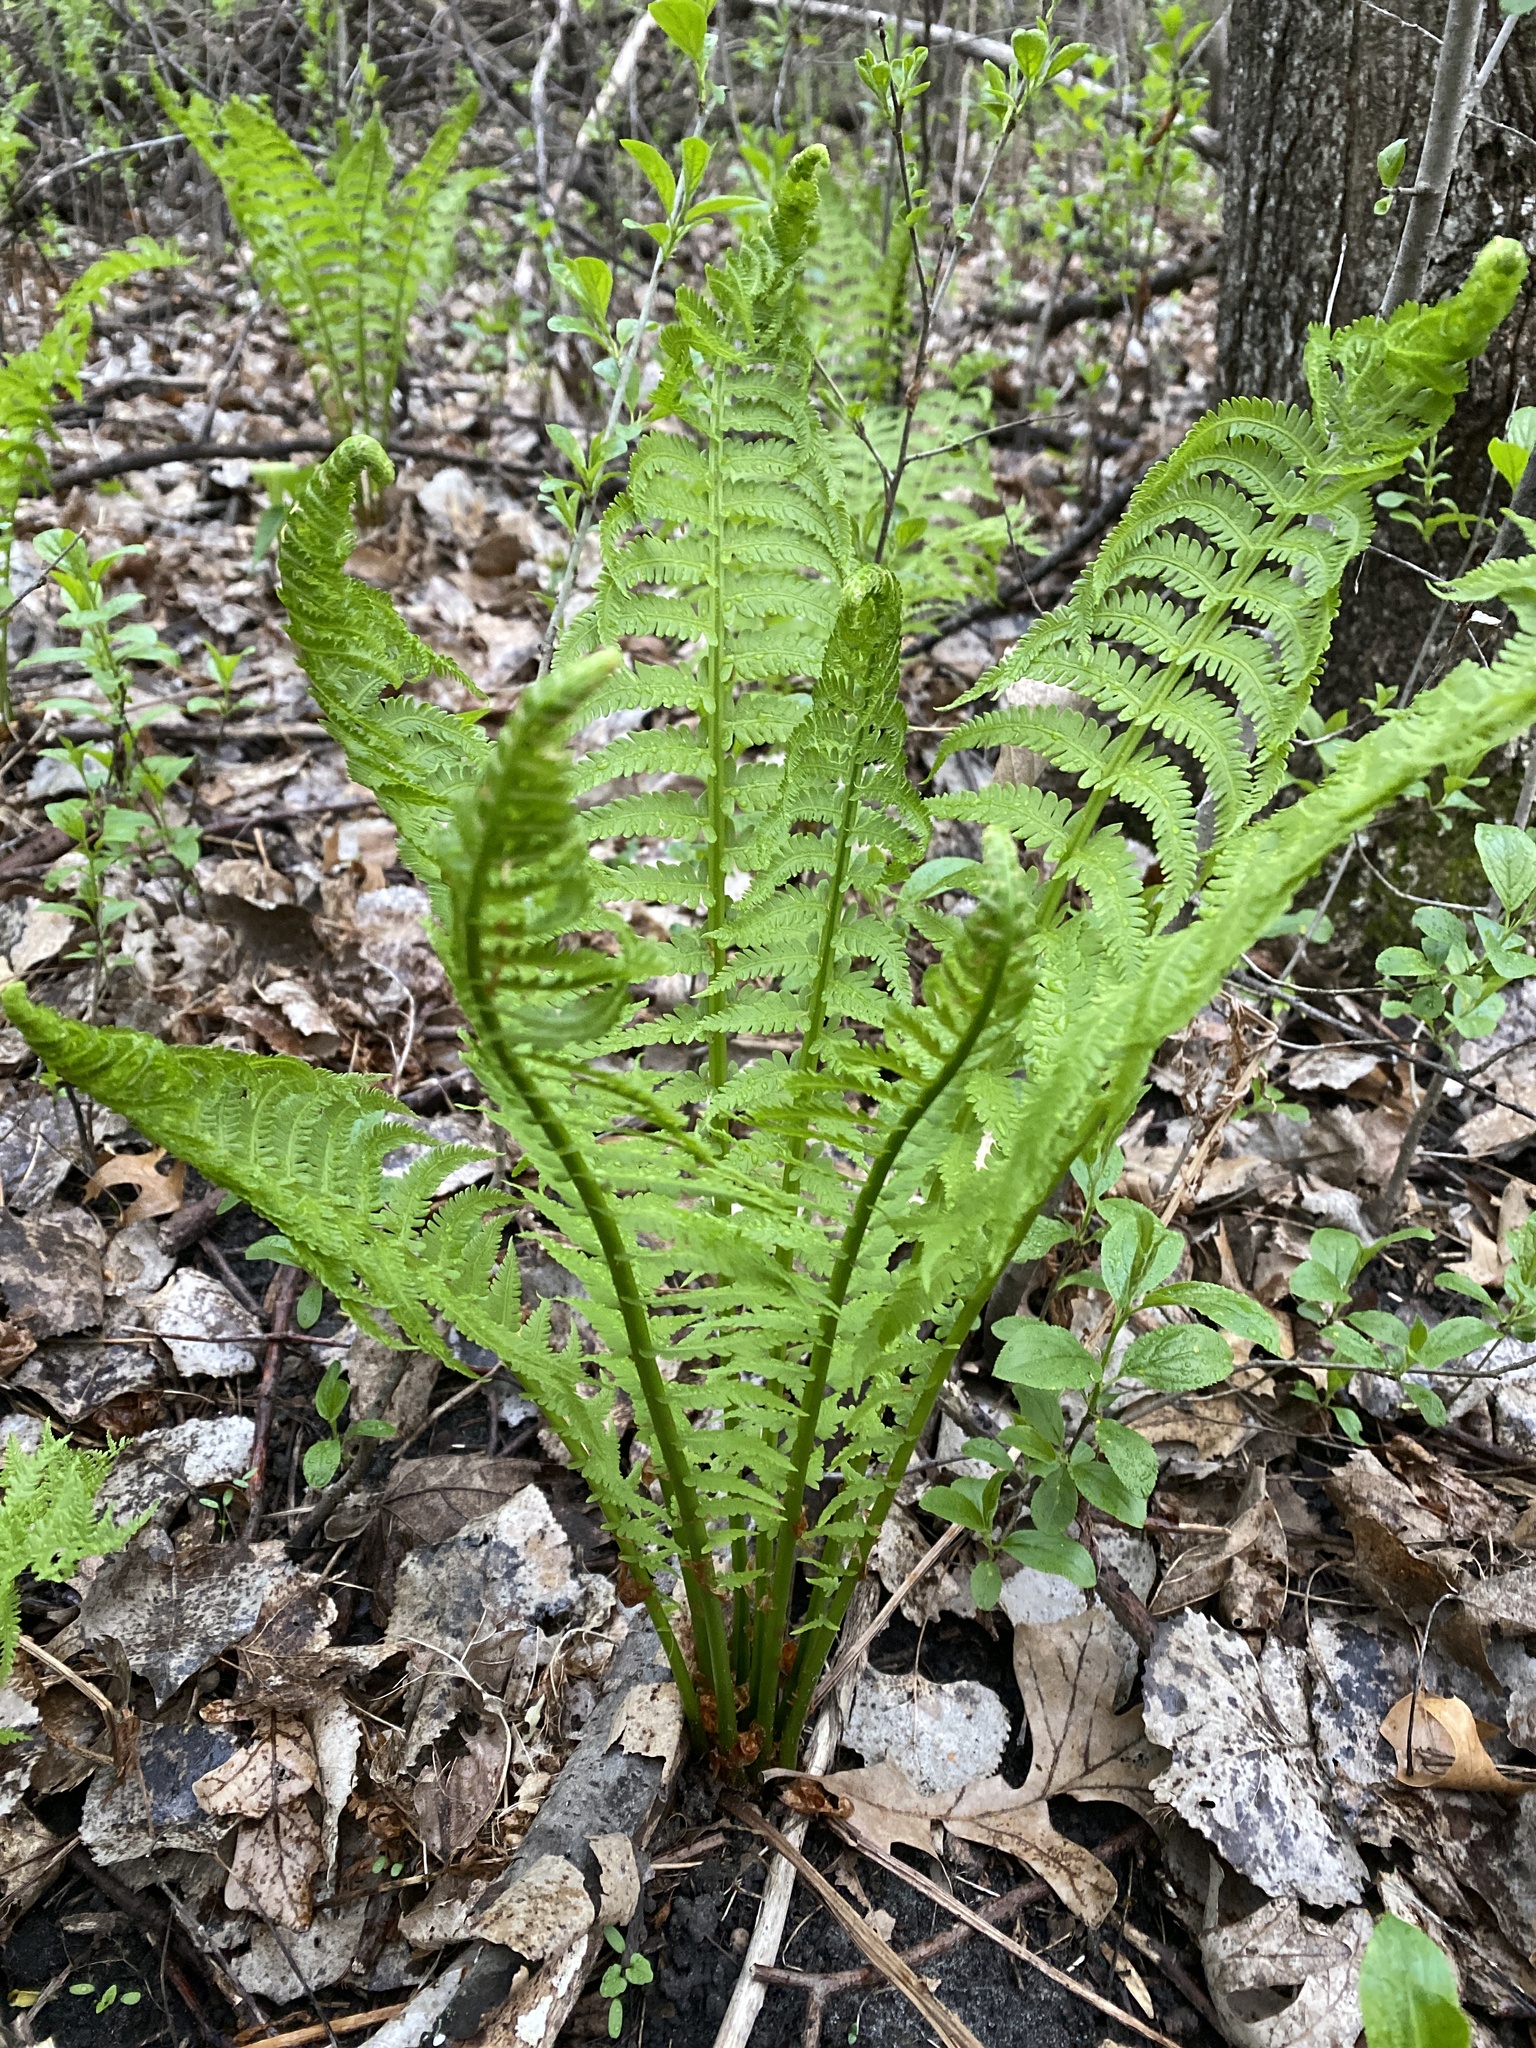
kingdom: Plantae
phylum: Tracheophyta
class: Polypodiopsida
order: Polypodiales
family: Onocleaceae
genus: Matteuccia
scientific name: Matteuccia struthiopteris
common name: Ostrich fern
